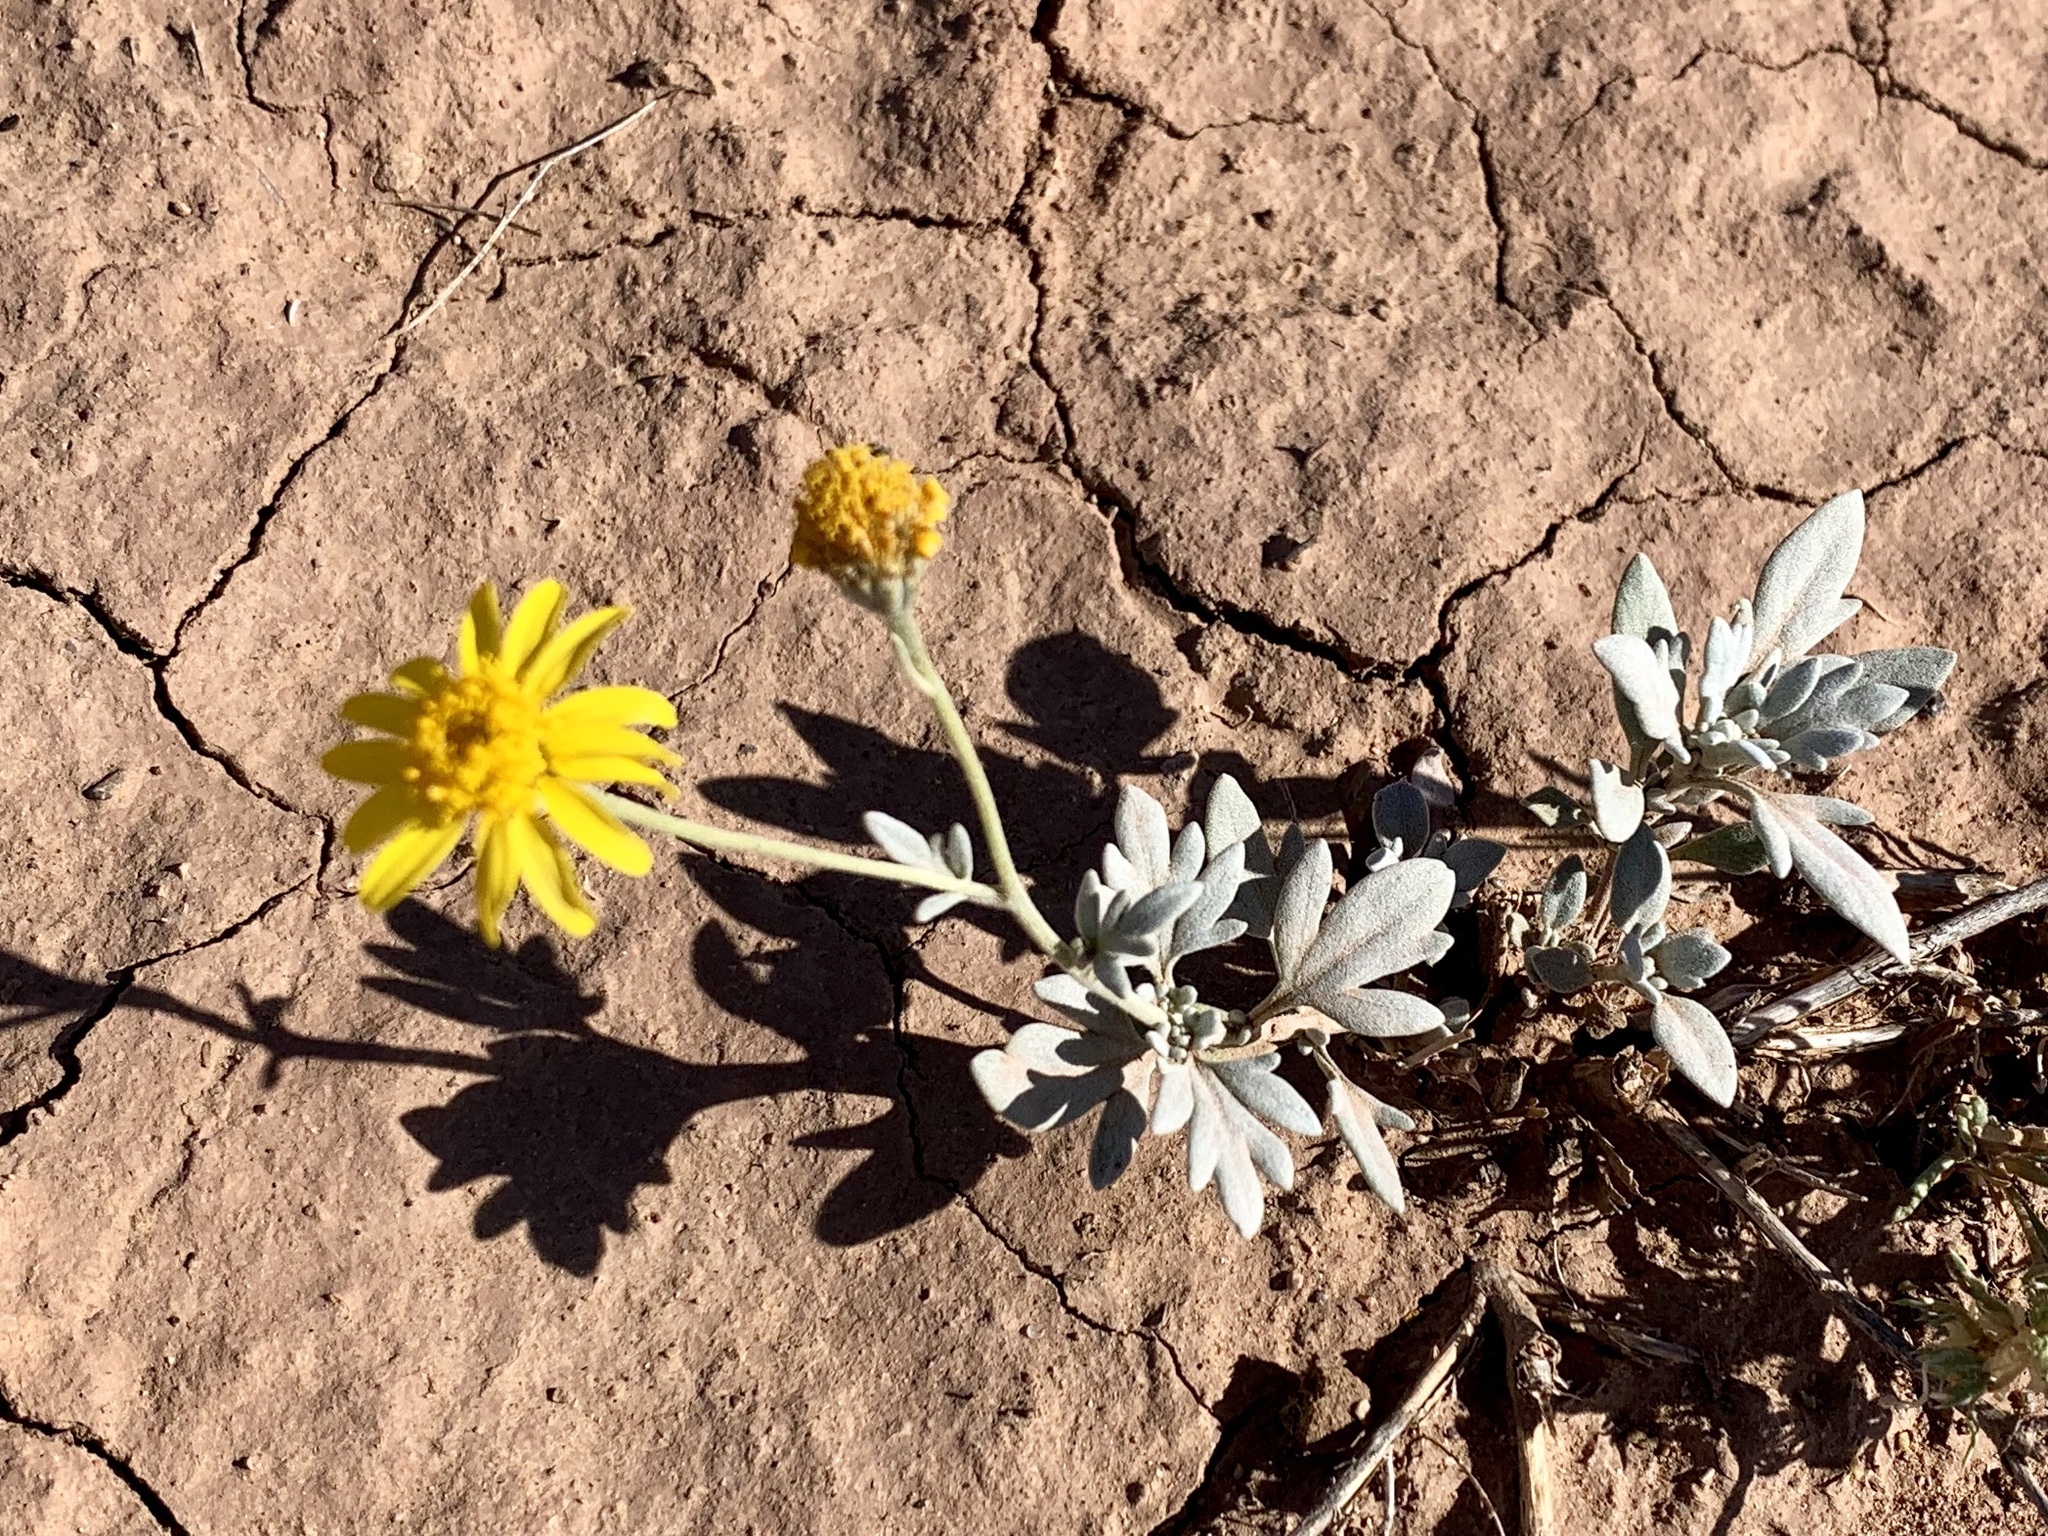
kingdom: Plantae
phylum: Tracheophyta
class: Magnoliopsida
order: Asterales
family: Asteraceae
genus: Picradeniopsis
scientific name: Picradeniopsis absinthifolia
